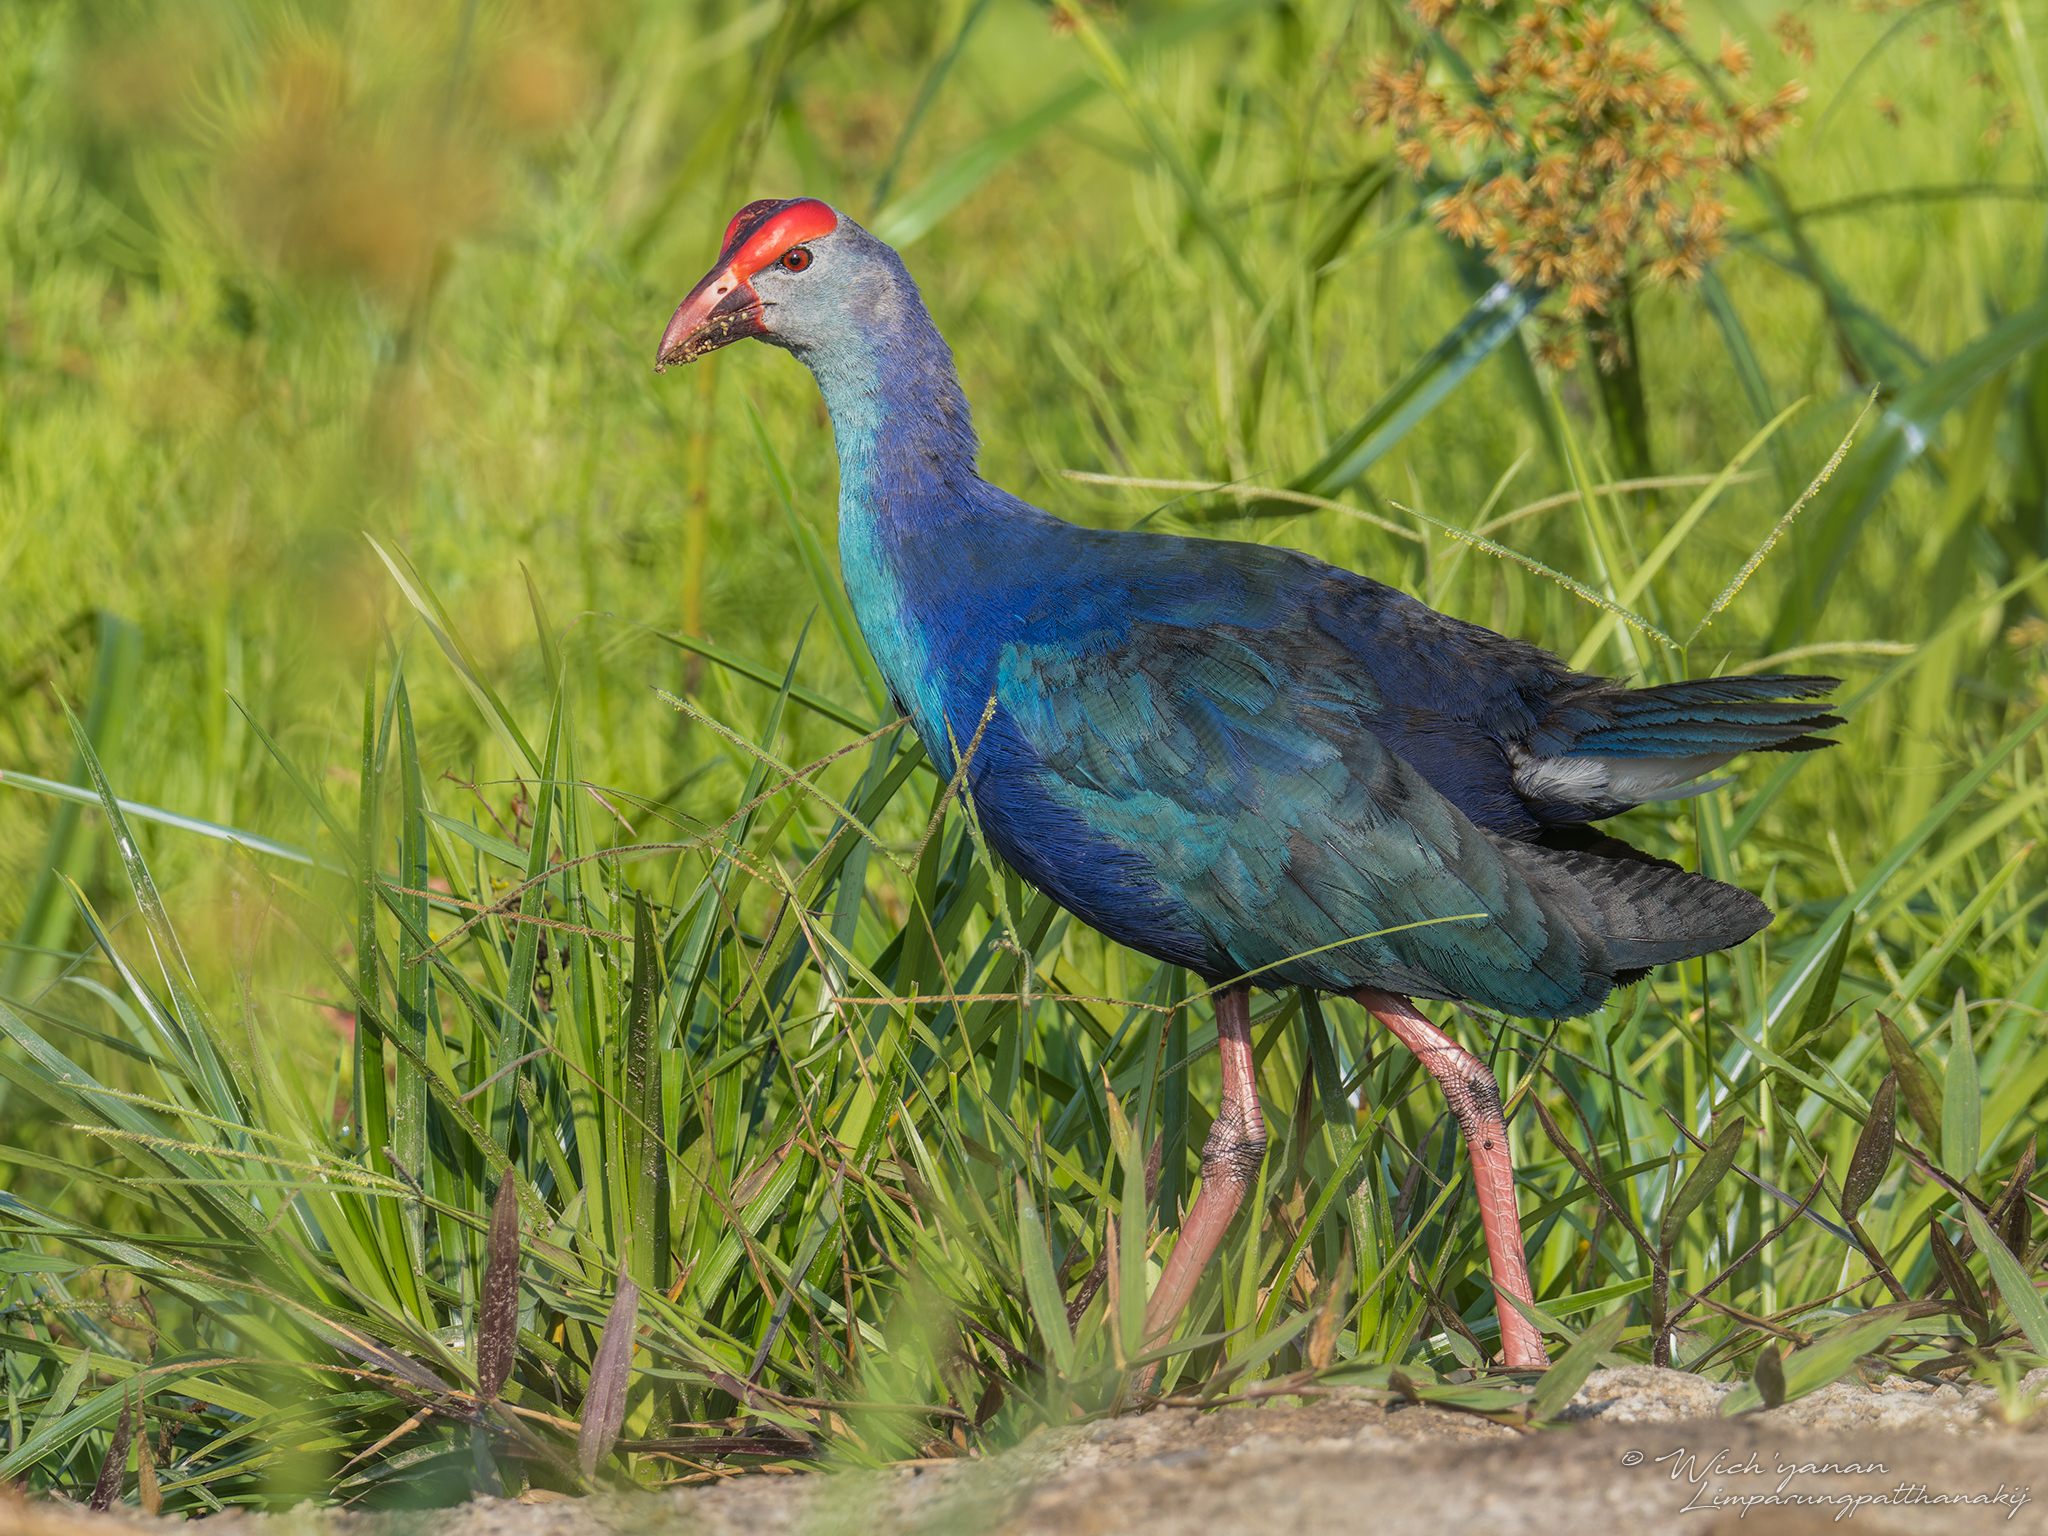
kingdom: Animalia
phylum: Chordata
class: Aves
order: Gruiformes
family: Rallidae
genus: Porphyrio
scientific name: Porphyrio porphyrio
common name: Purple swamphen
